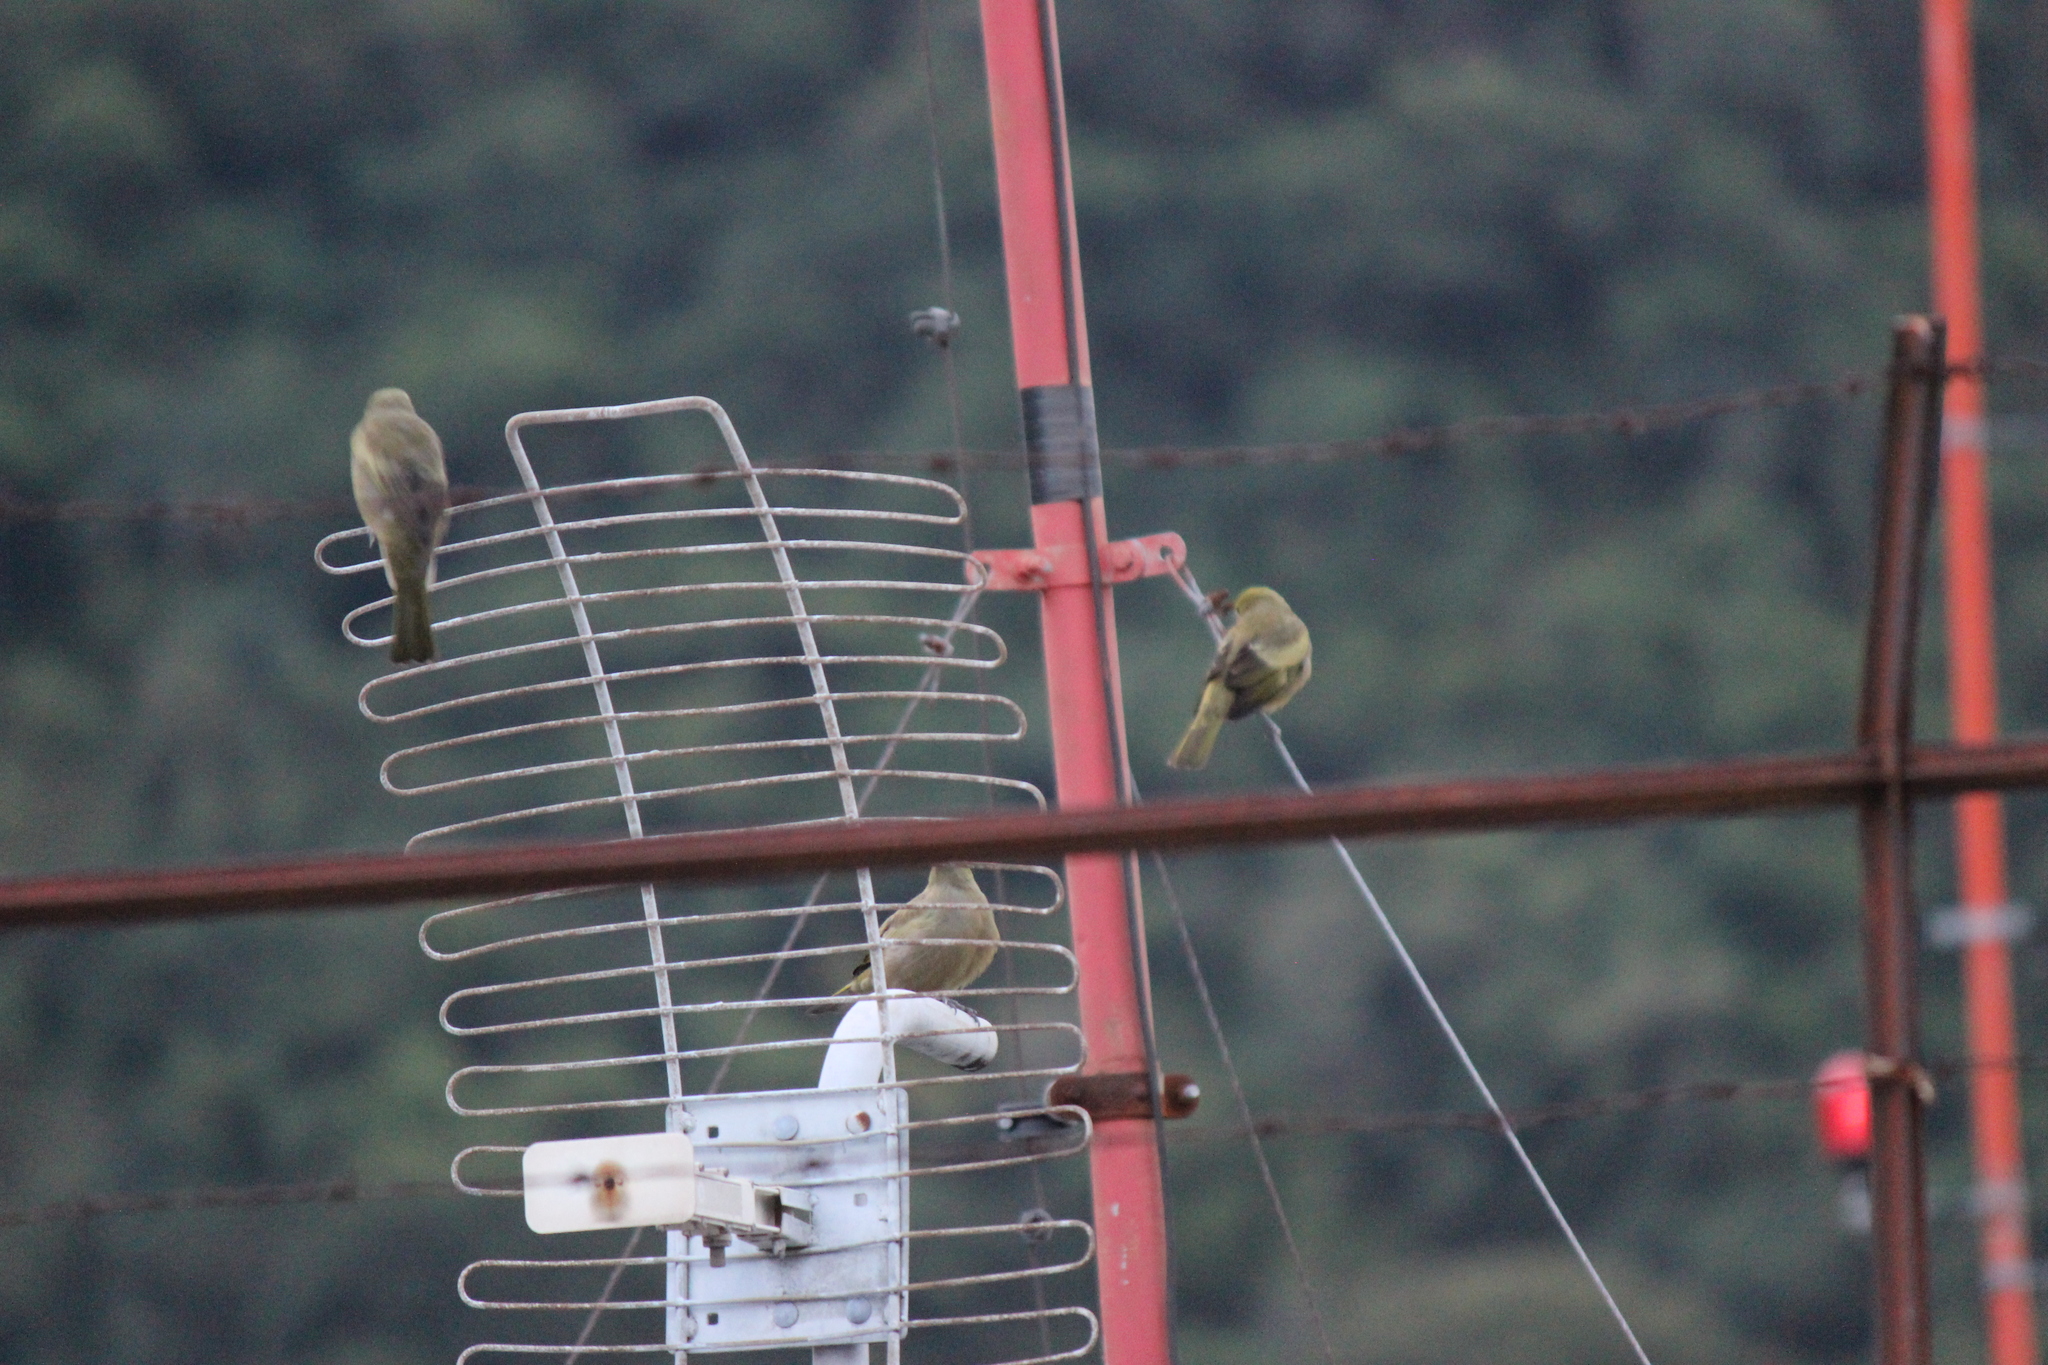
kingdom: Animalia
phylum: Chordata
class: Aves
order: Passeriformes
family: Thraupidae
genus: Thraupis
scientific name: Thraupis palmarum
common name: Palm tanager
